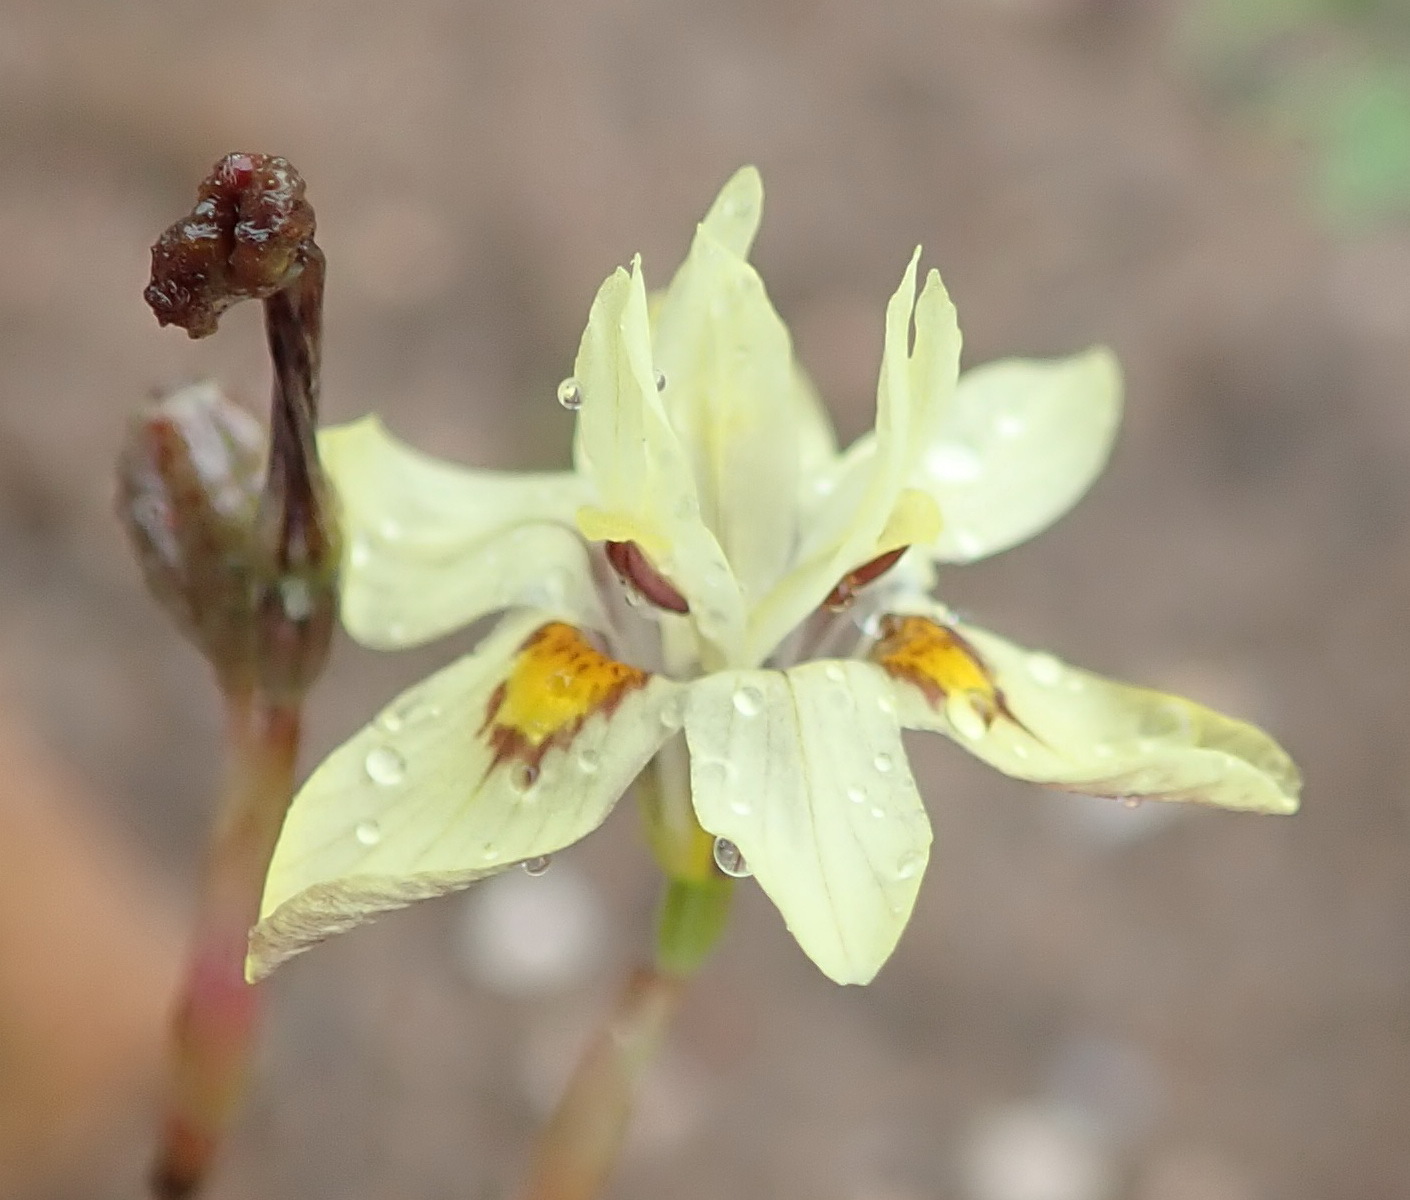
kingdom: Plantae
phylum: Tracheophyta
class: Liliopsida
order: Asparagales
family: Iridaceae
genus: Moraea
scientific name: Moraea gawleri
